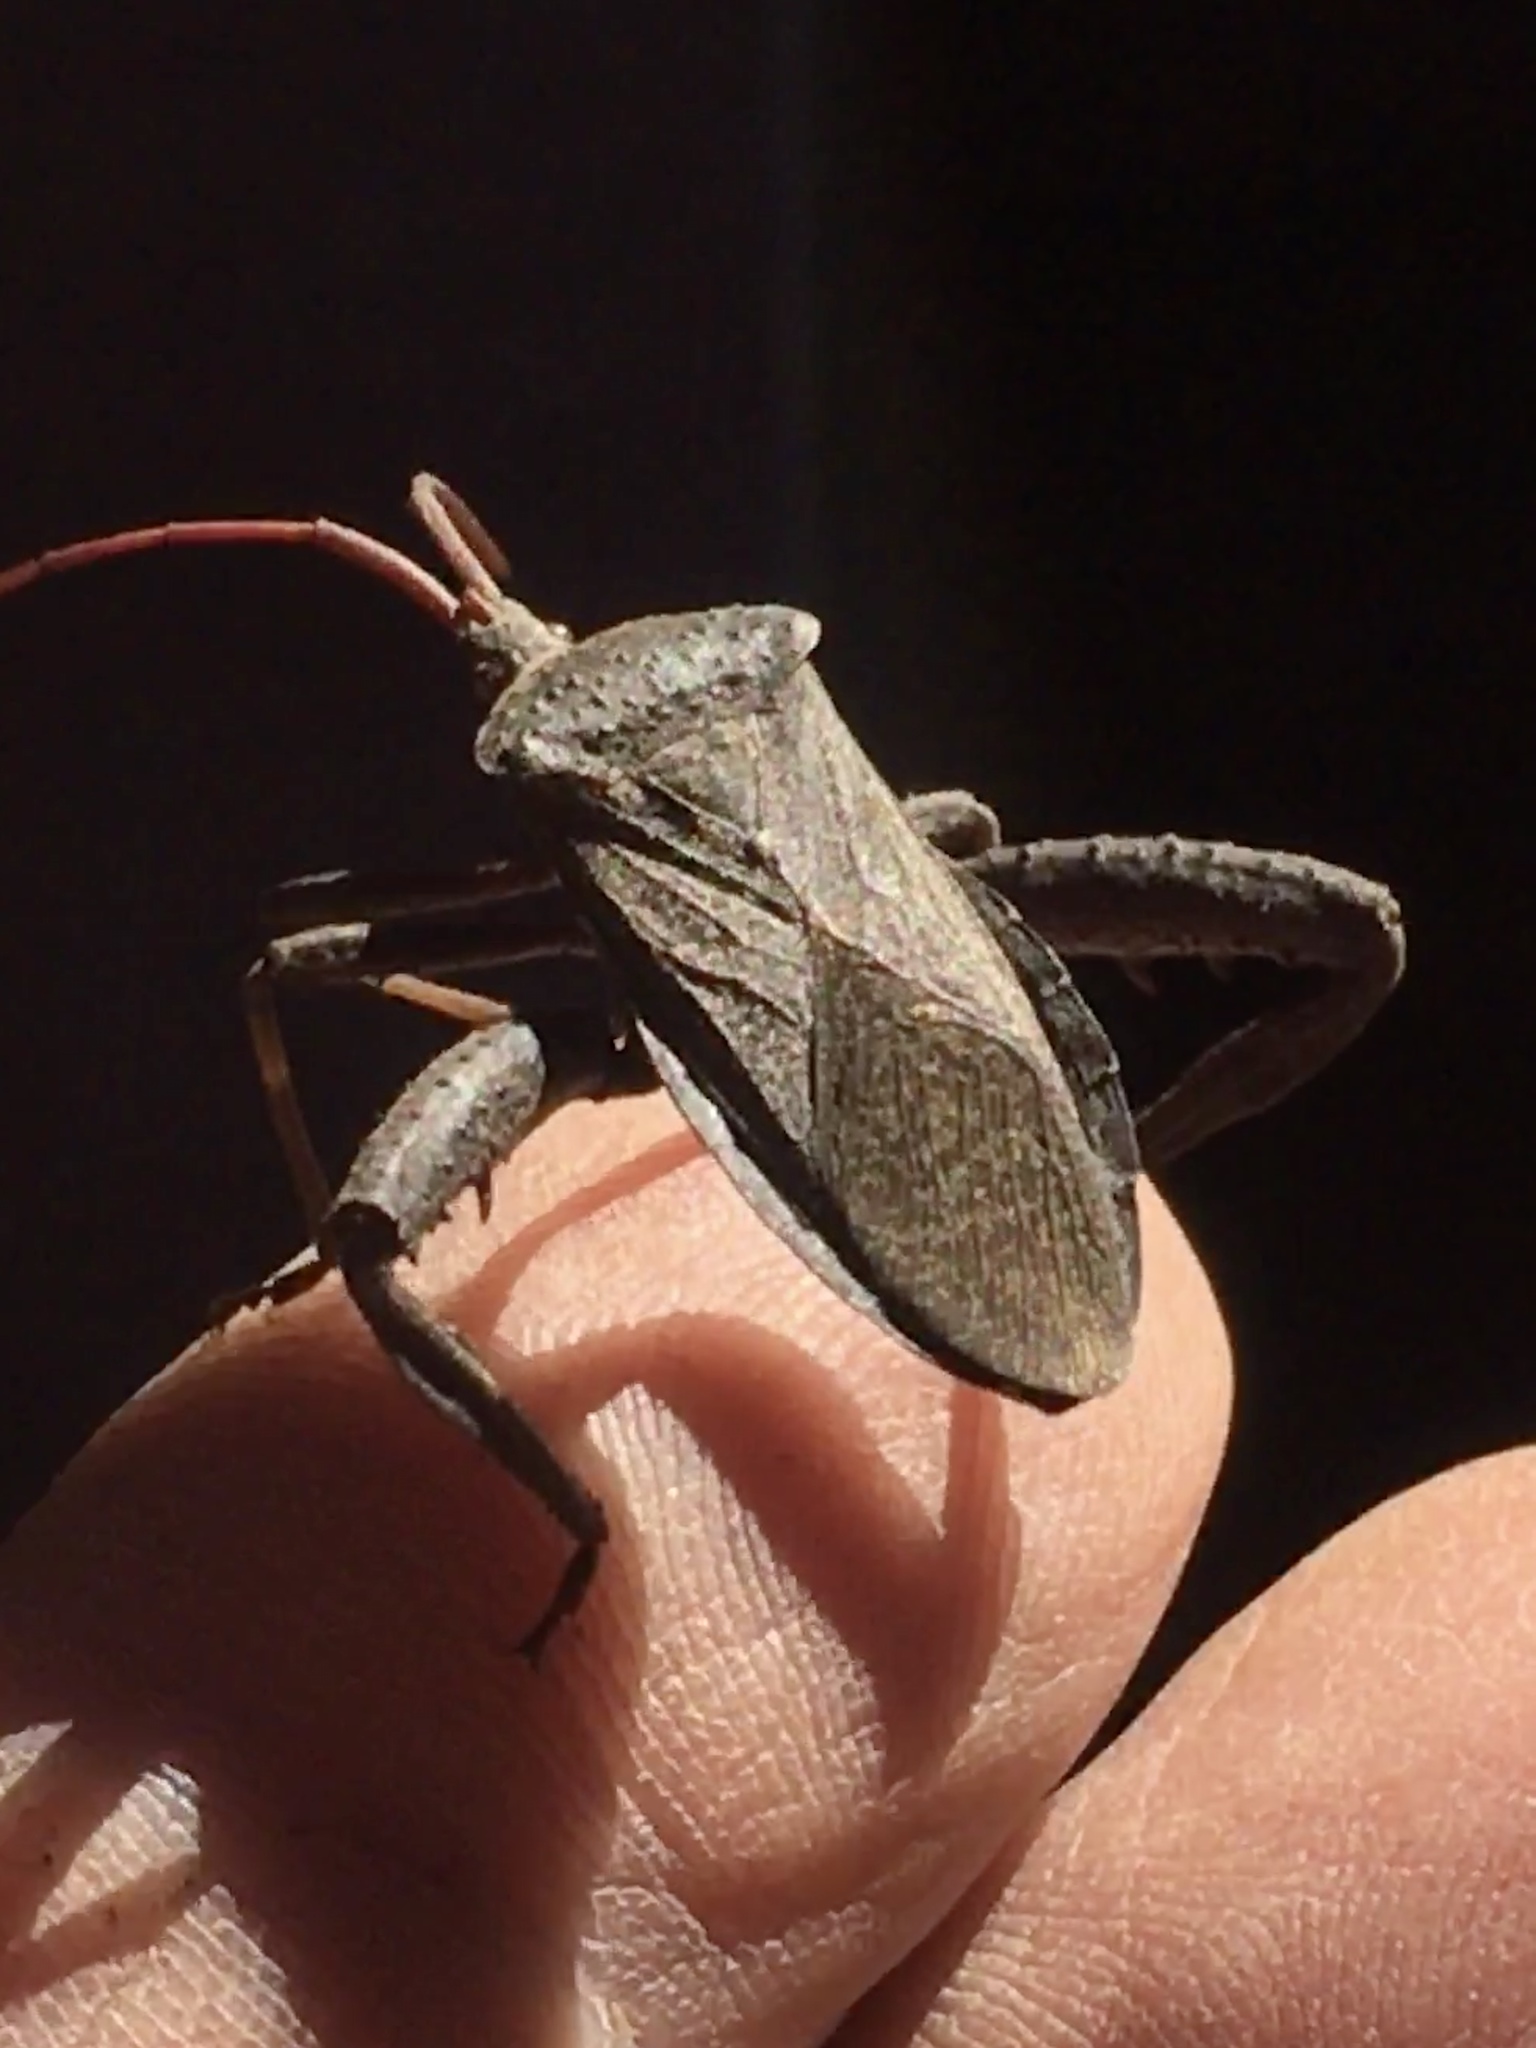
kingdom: Animalia
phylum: Arthropoda
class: Insecta
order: Hemiptera
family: Coreidae
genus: Acanthocephala
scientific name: Acanthocephala femorata
